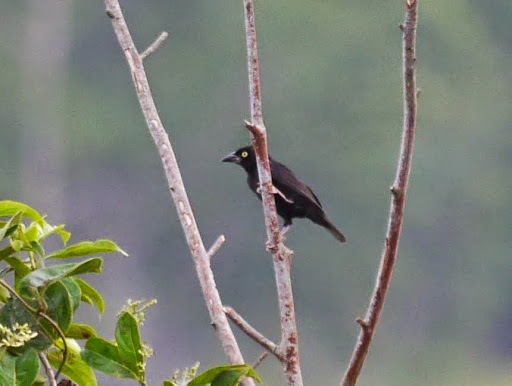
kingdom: Animalia
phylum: Chordata
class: Aves
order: Passeriformes
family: Ploceidae
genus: Ploceus
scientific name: Ploceus nigerrimus
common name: Vieillot's black weaver
